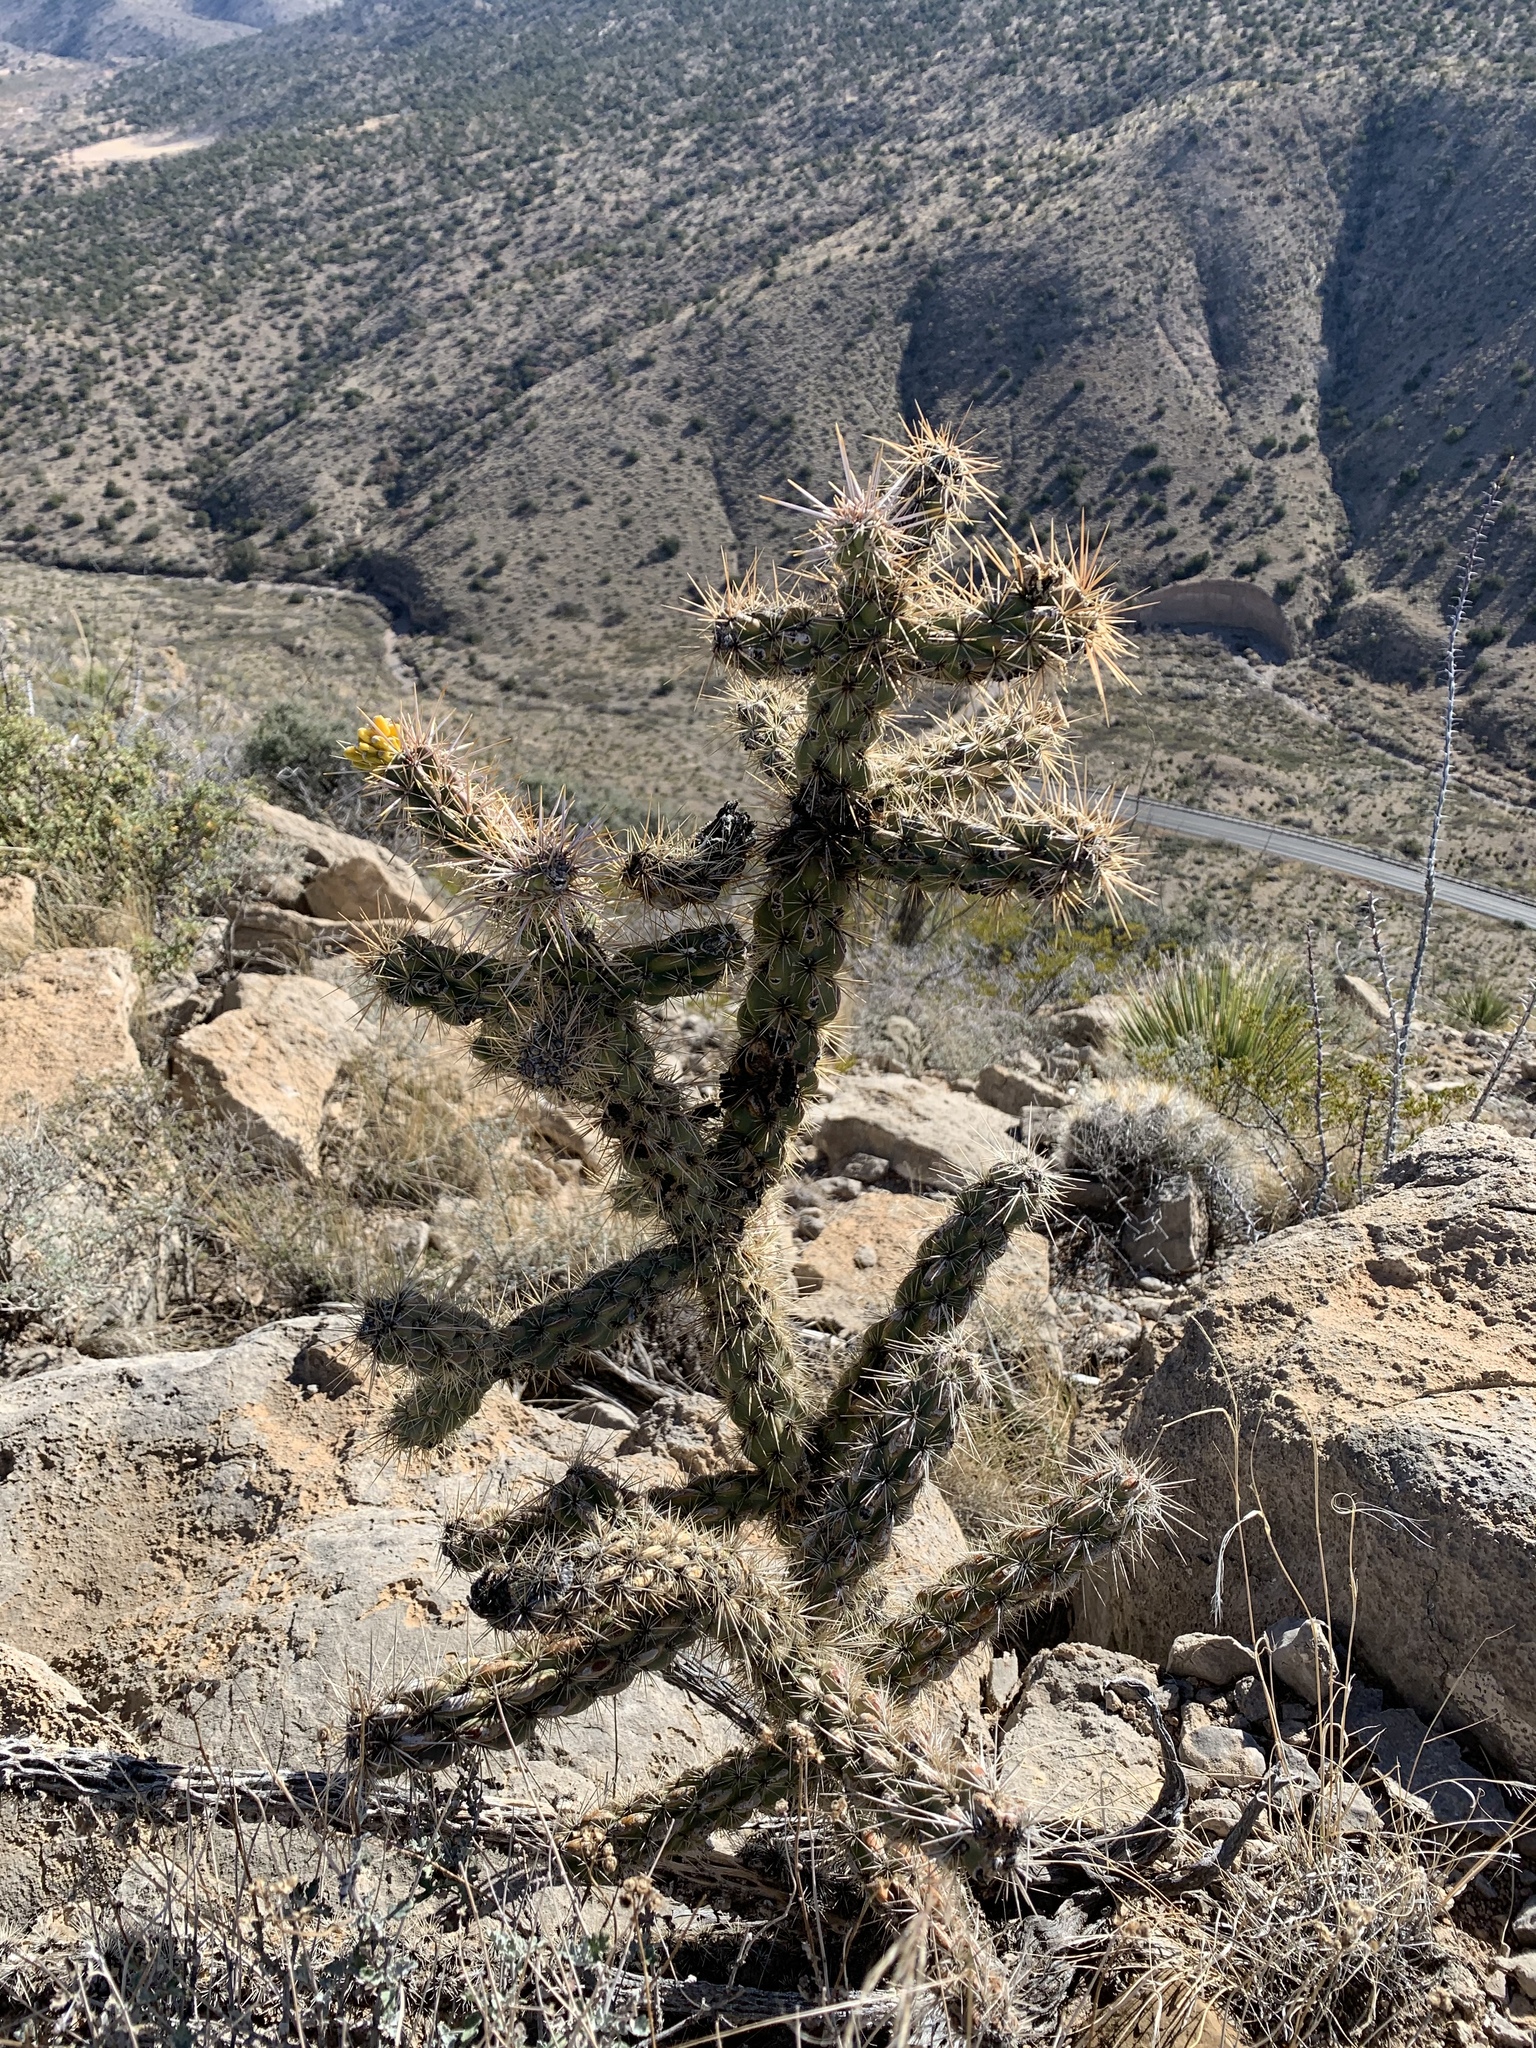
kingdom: Plantae
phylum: Tracheophyta
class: Magnoliopsida
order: Caryophyllales
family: Cactaceae
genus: Cylindropuntia
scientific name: Cylindropuntia imbricata
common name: Candelabrum cactus
